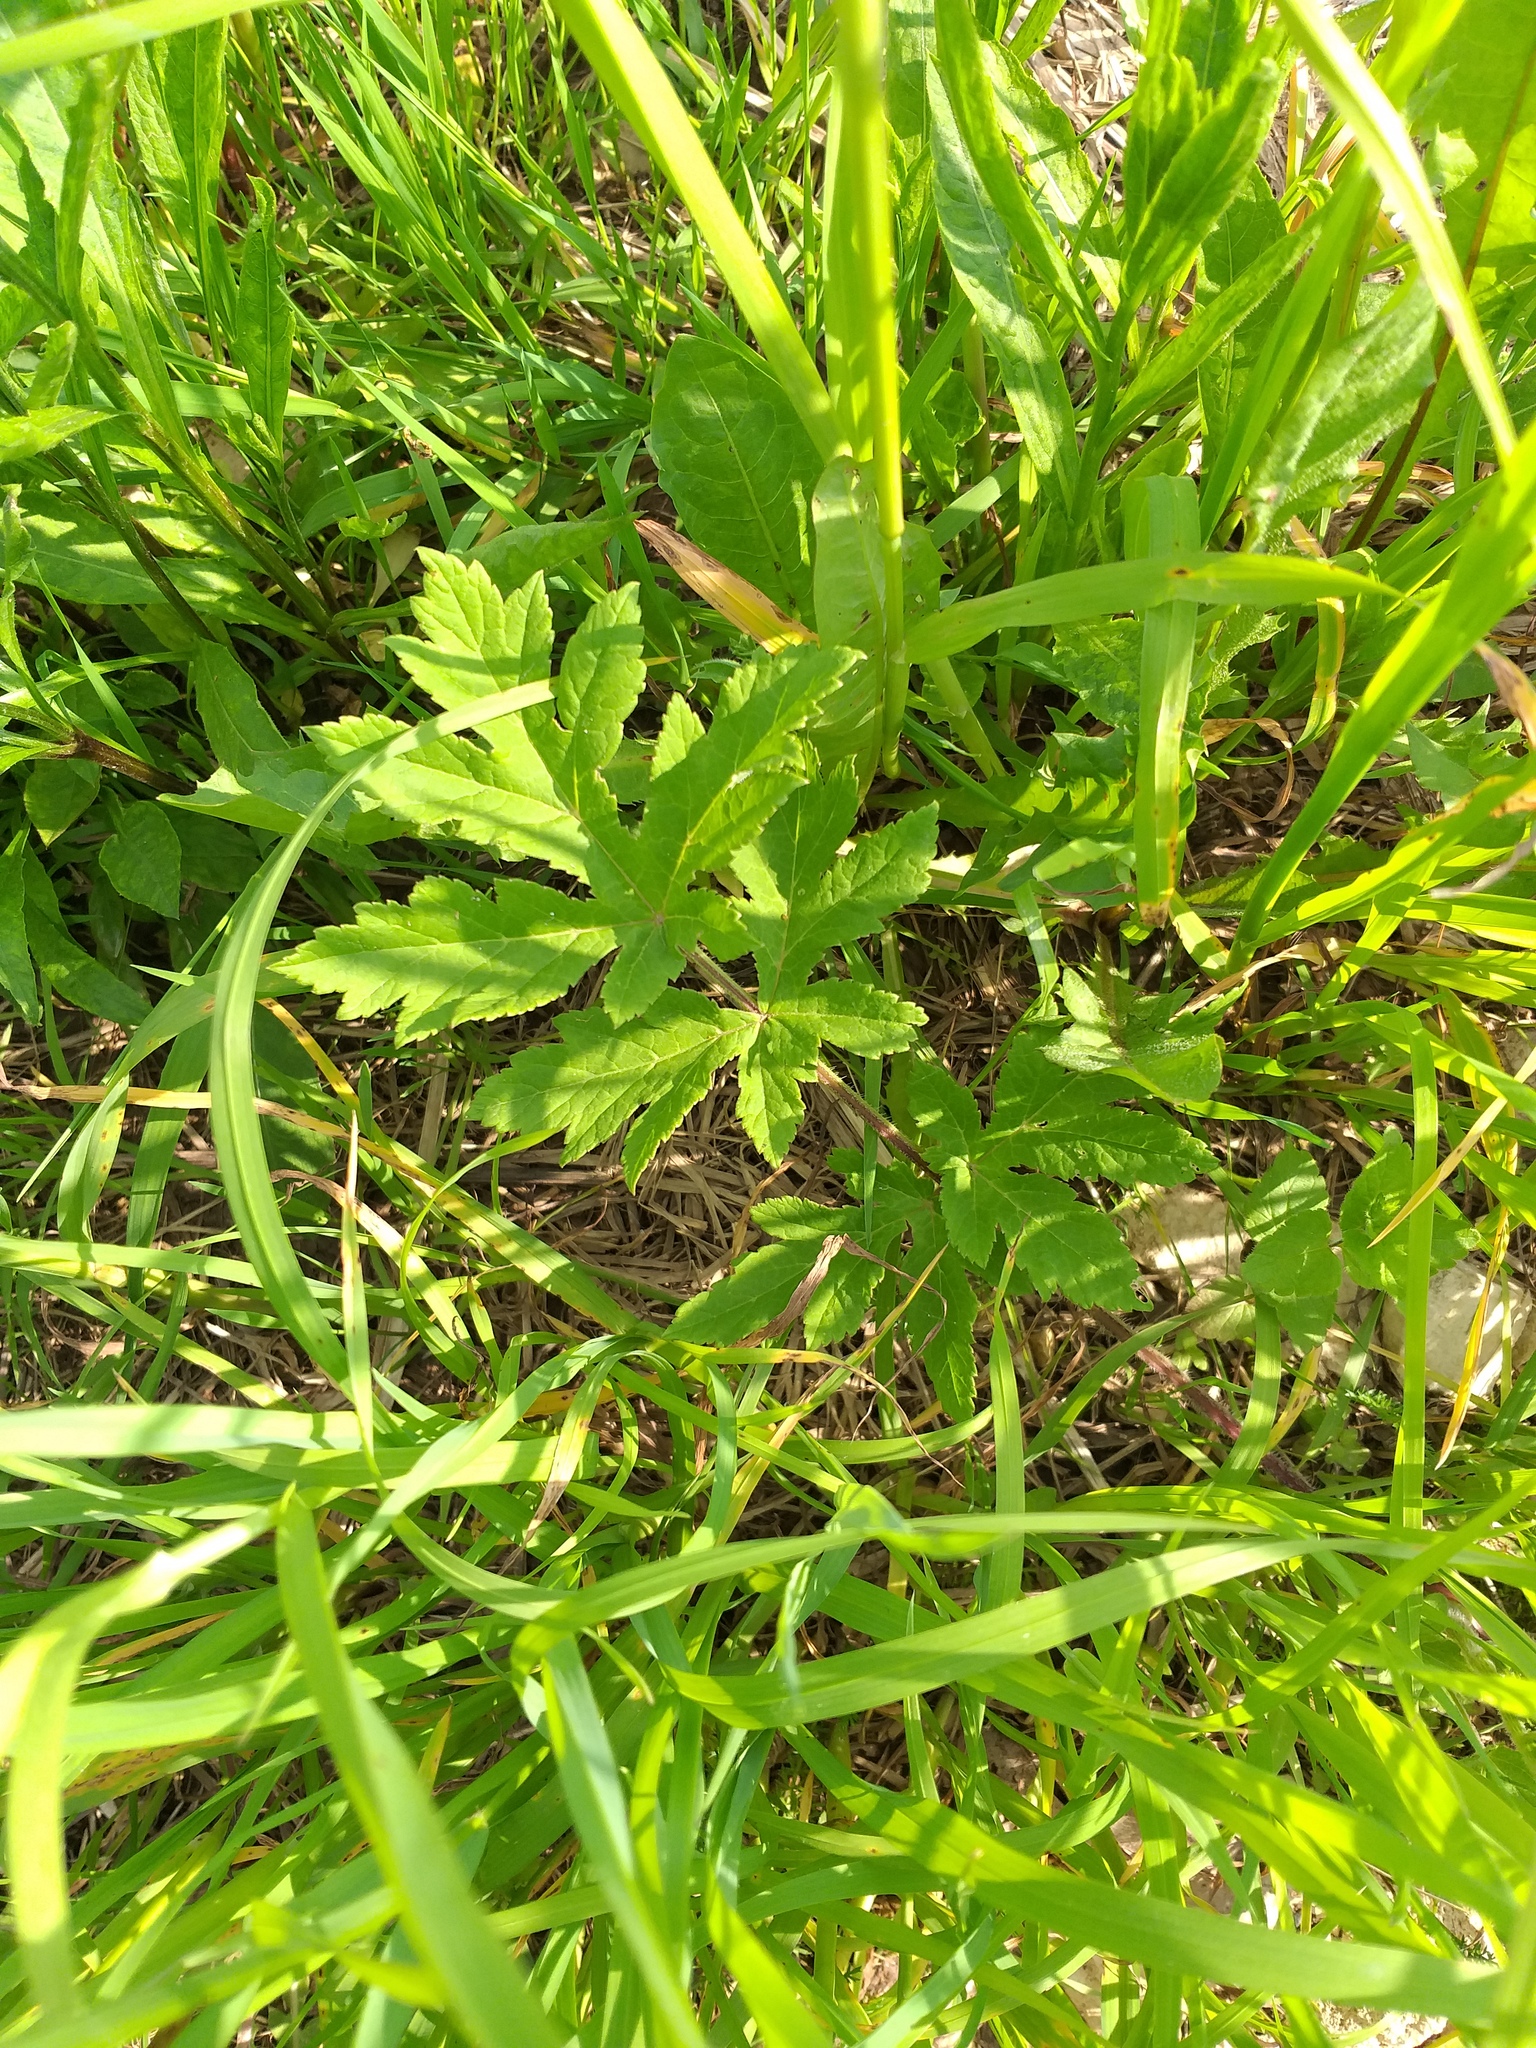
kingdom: Plantae
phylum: Tracheophyta
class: Magnoliopsida
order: Apiales
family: Apiaceae
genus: Heracleum
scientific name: Heracleum sphondylium
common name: Hogweed
